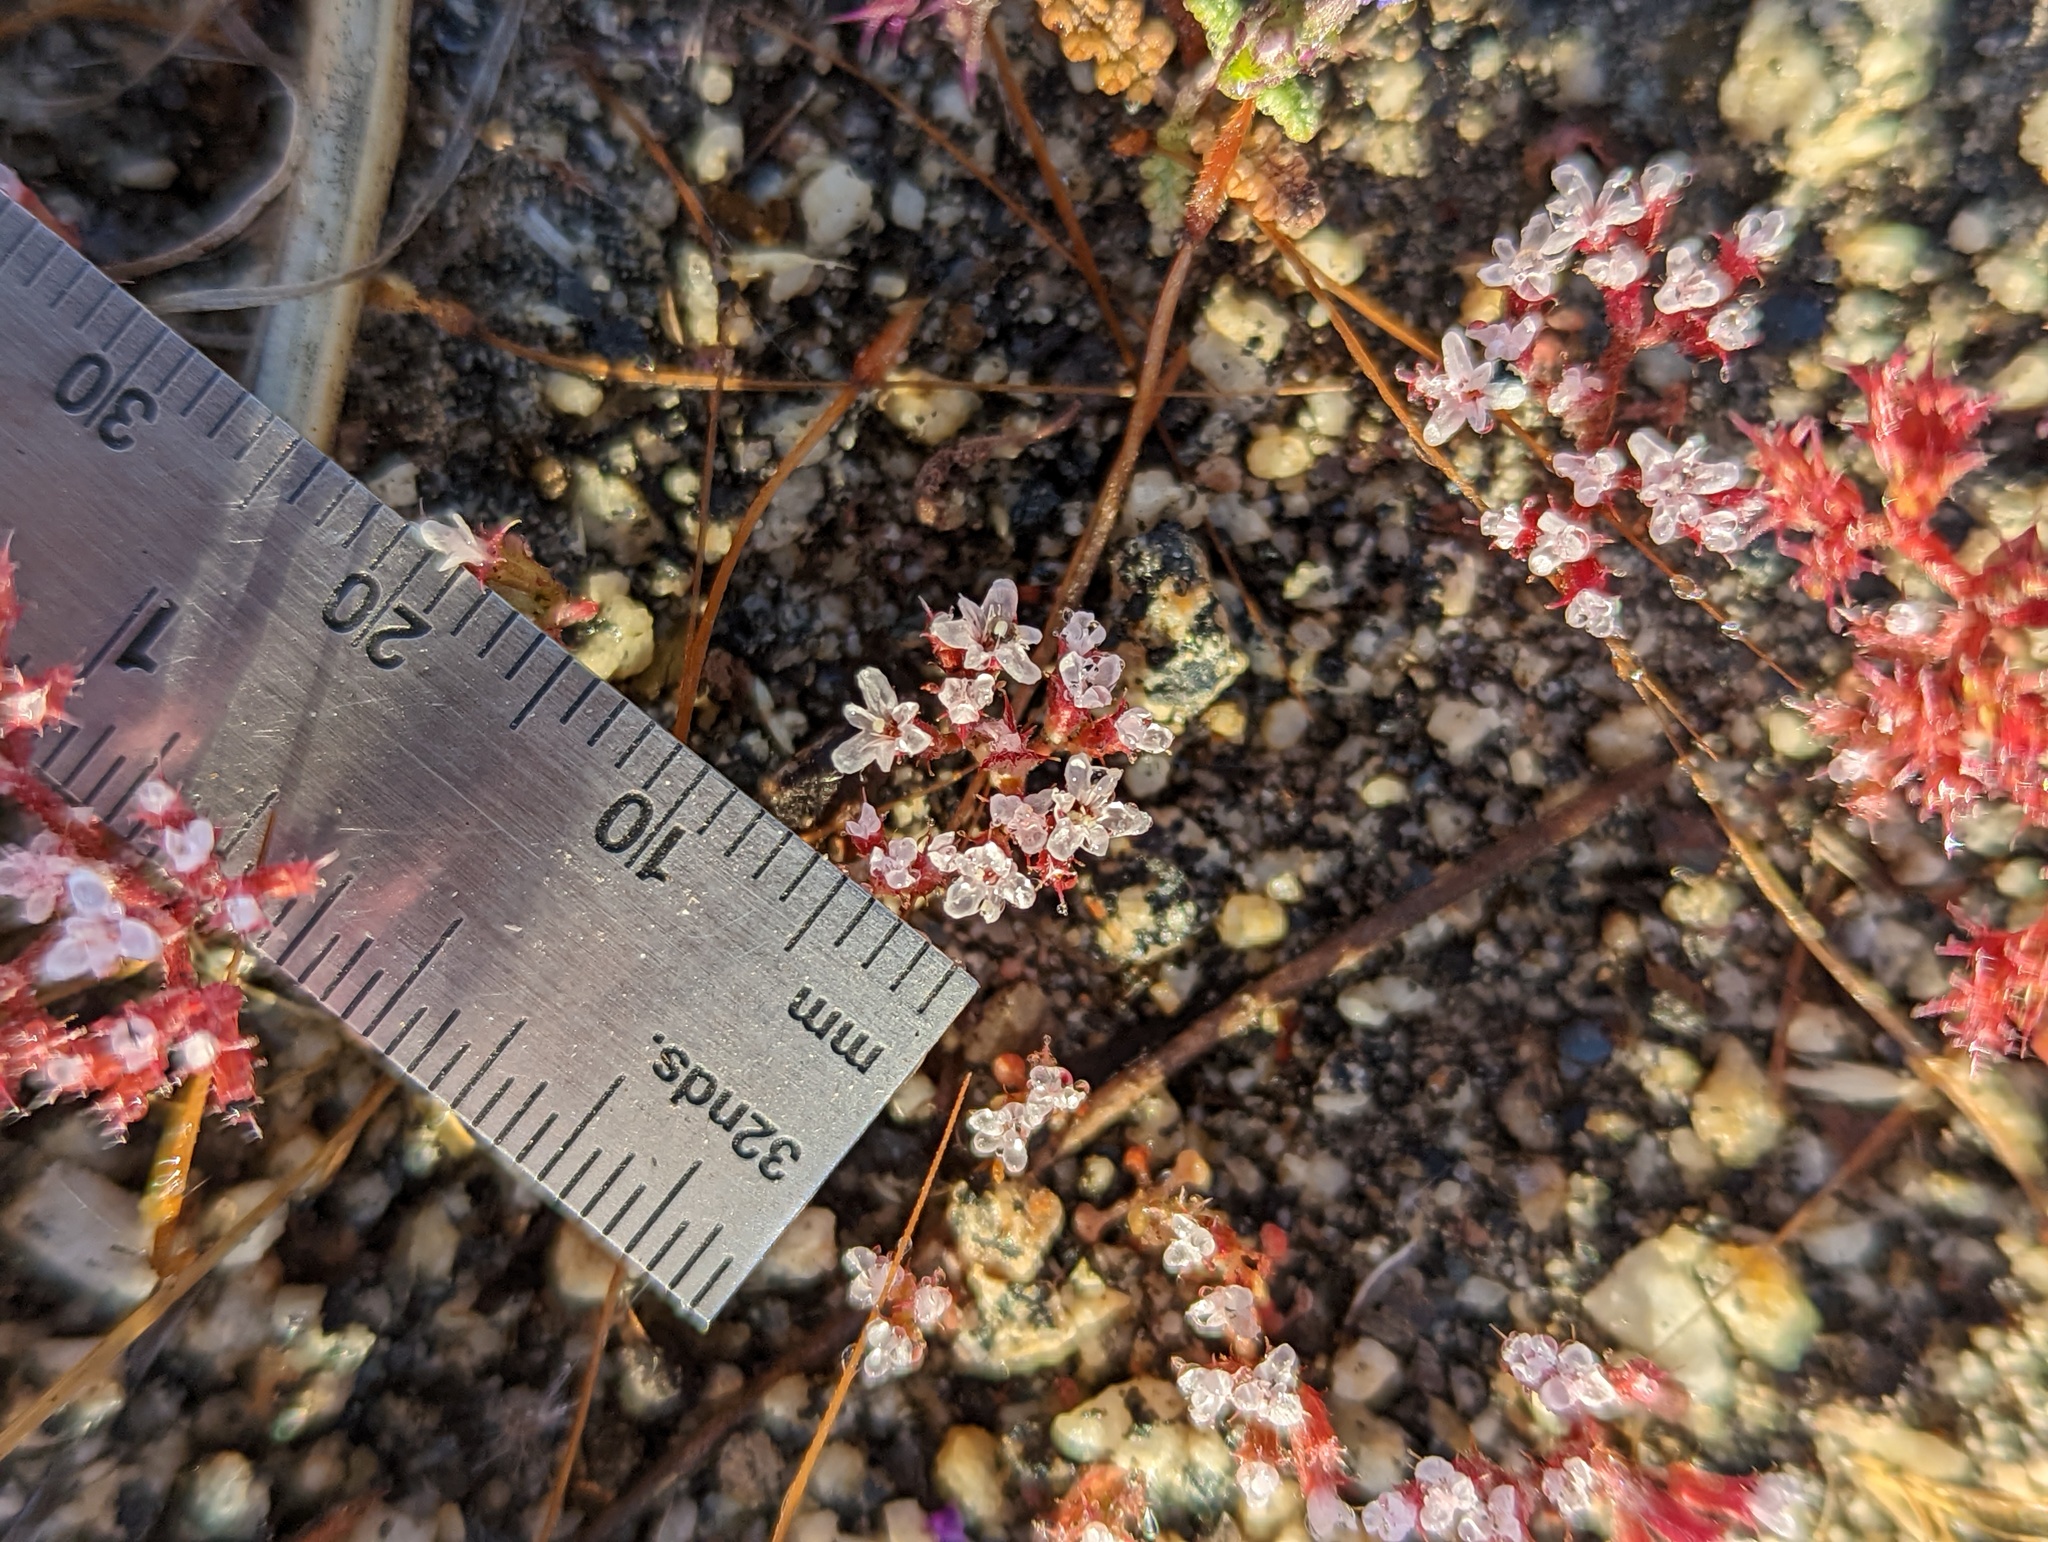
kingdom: Plantae
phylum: Tracheophyta
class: Magnoliopsida
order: Caryophyllales
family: Polygonaceae
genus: Chorizanthe
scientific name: Chorizanthe leptotheca
